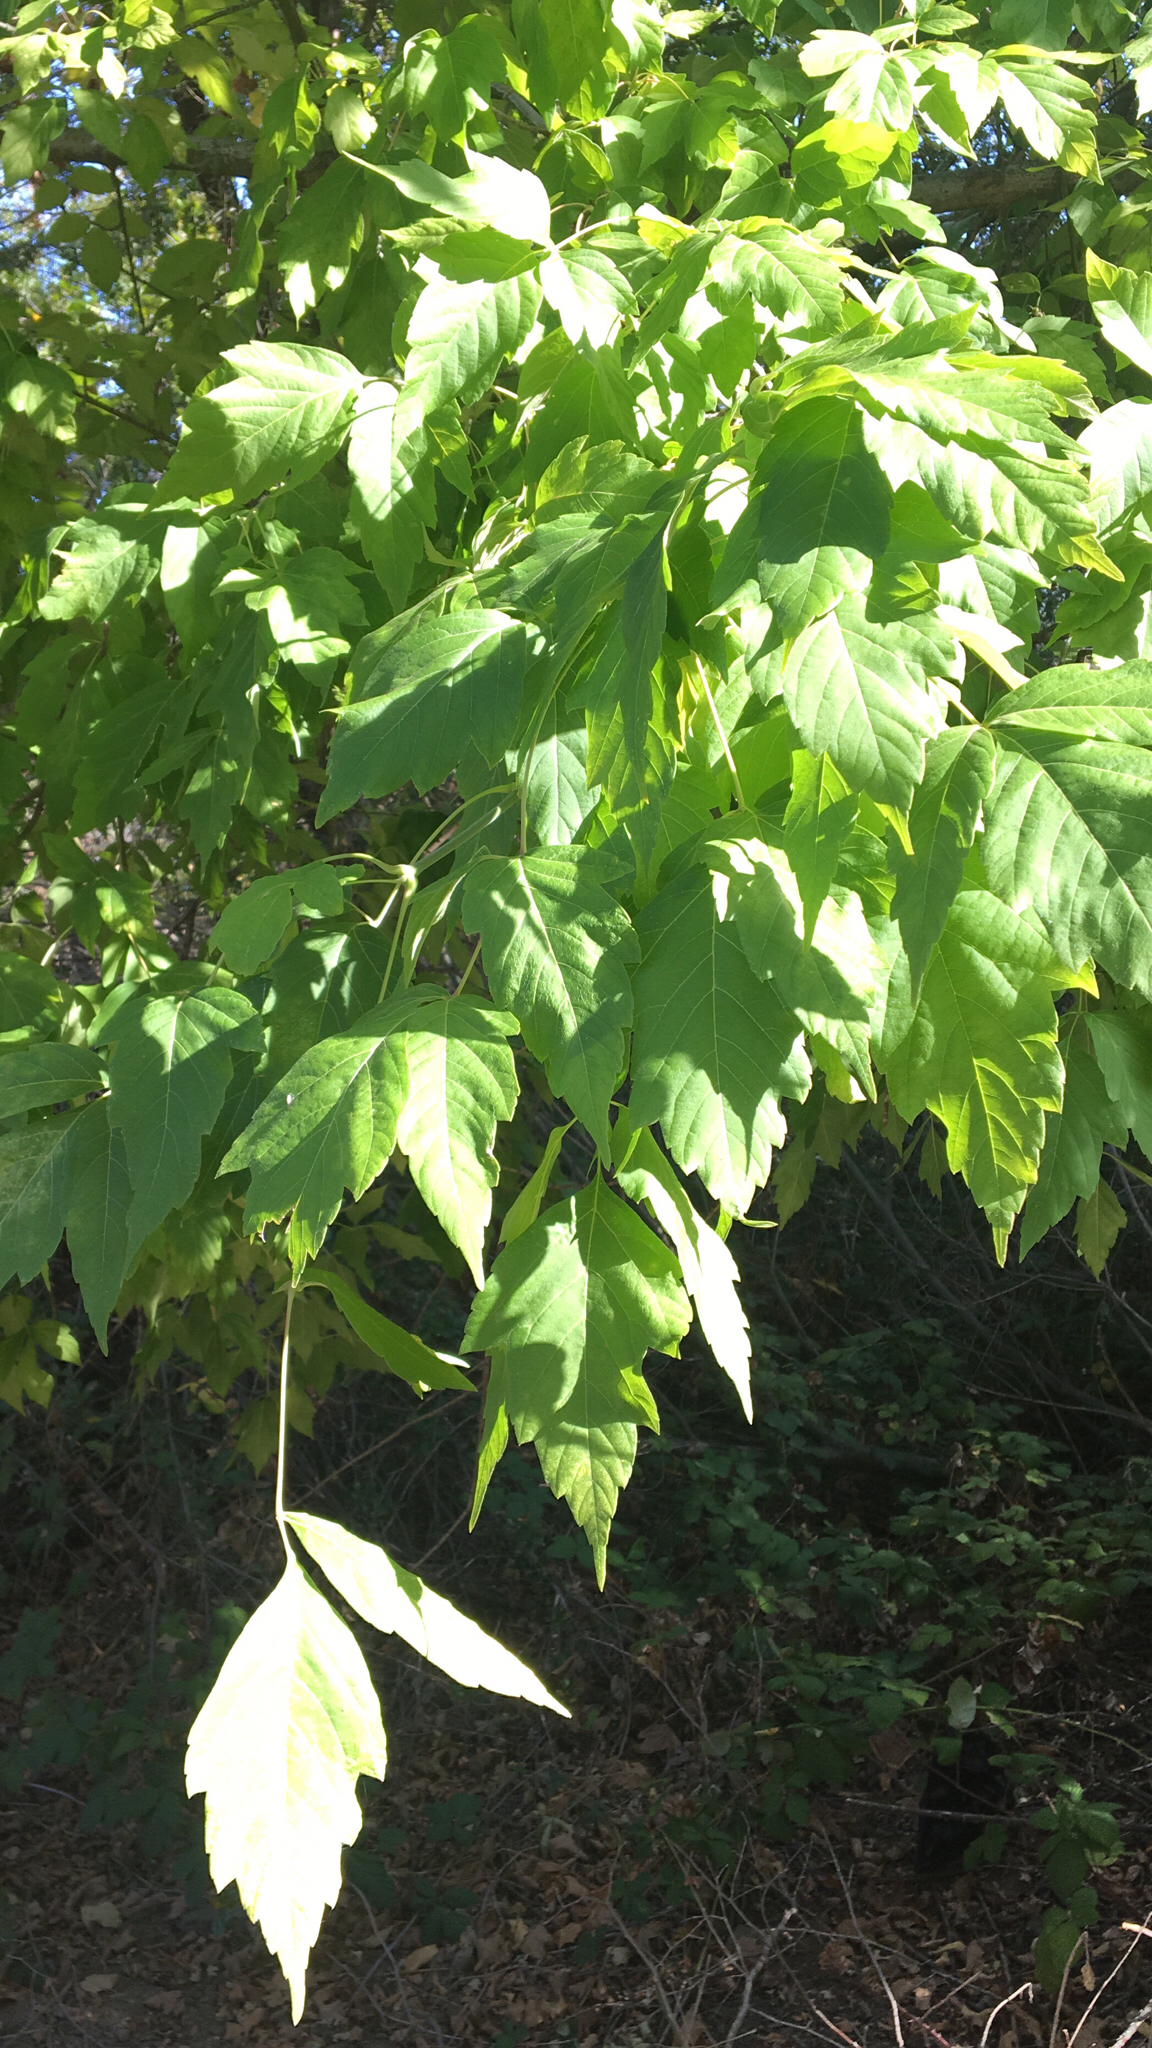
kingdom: Plantae
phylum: Tracheophyta
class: Magnoliopsida
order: Sapindales
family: Sapindaceae
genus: Acer
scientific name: Acer negundo
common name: Ashleaf maple
